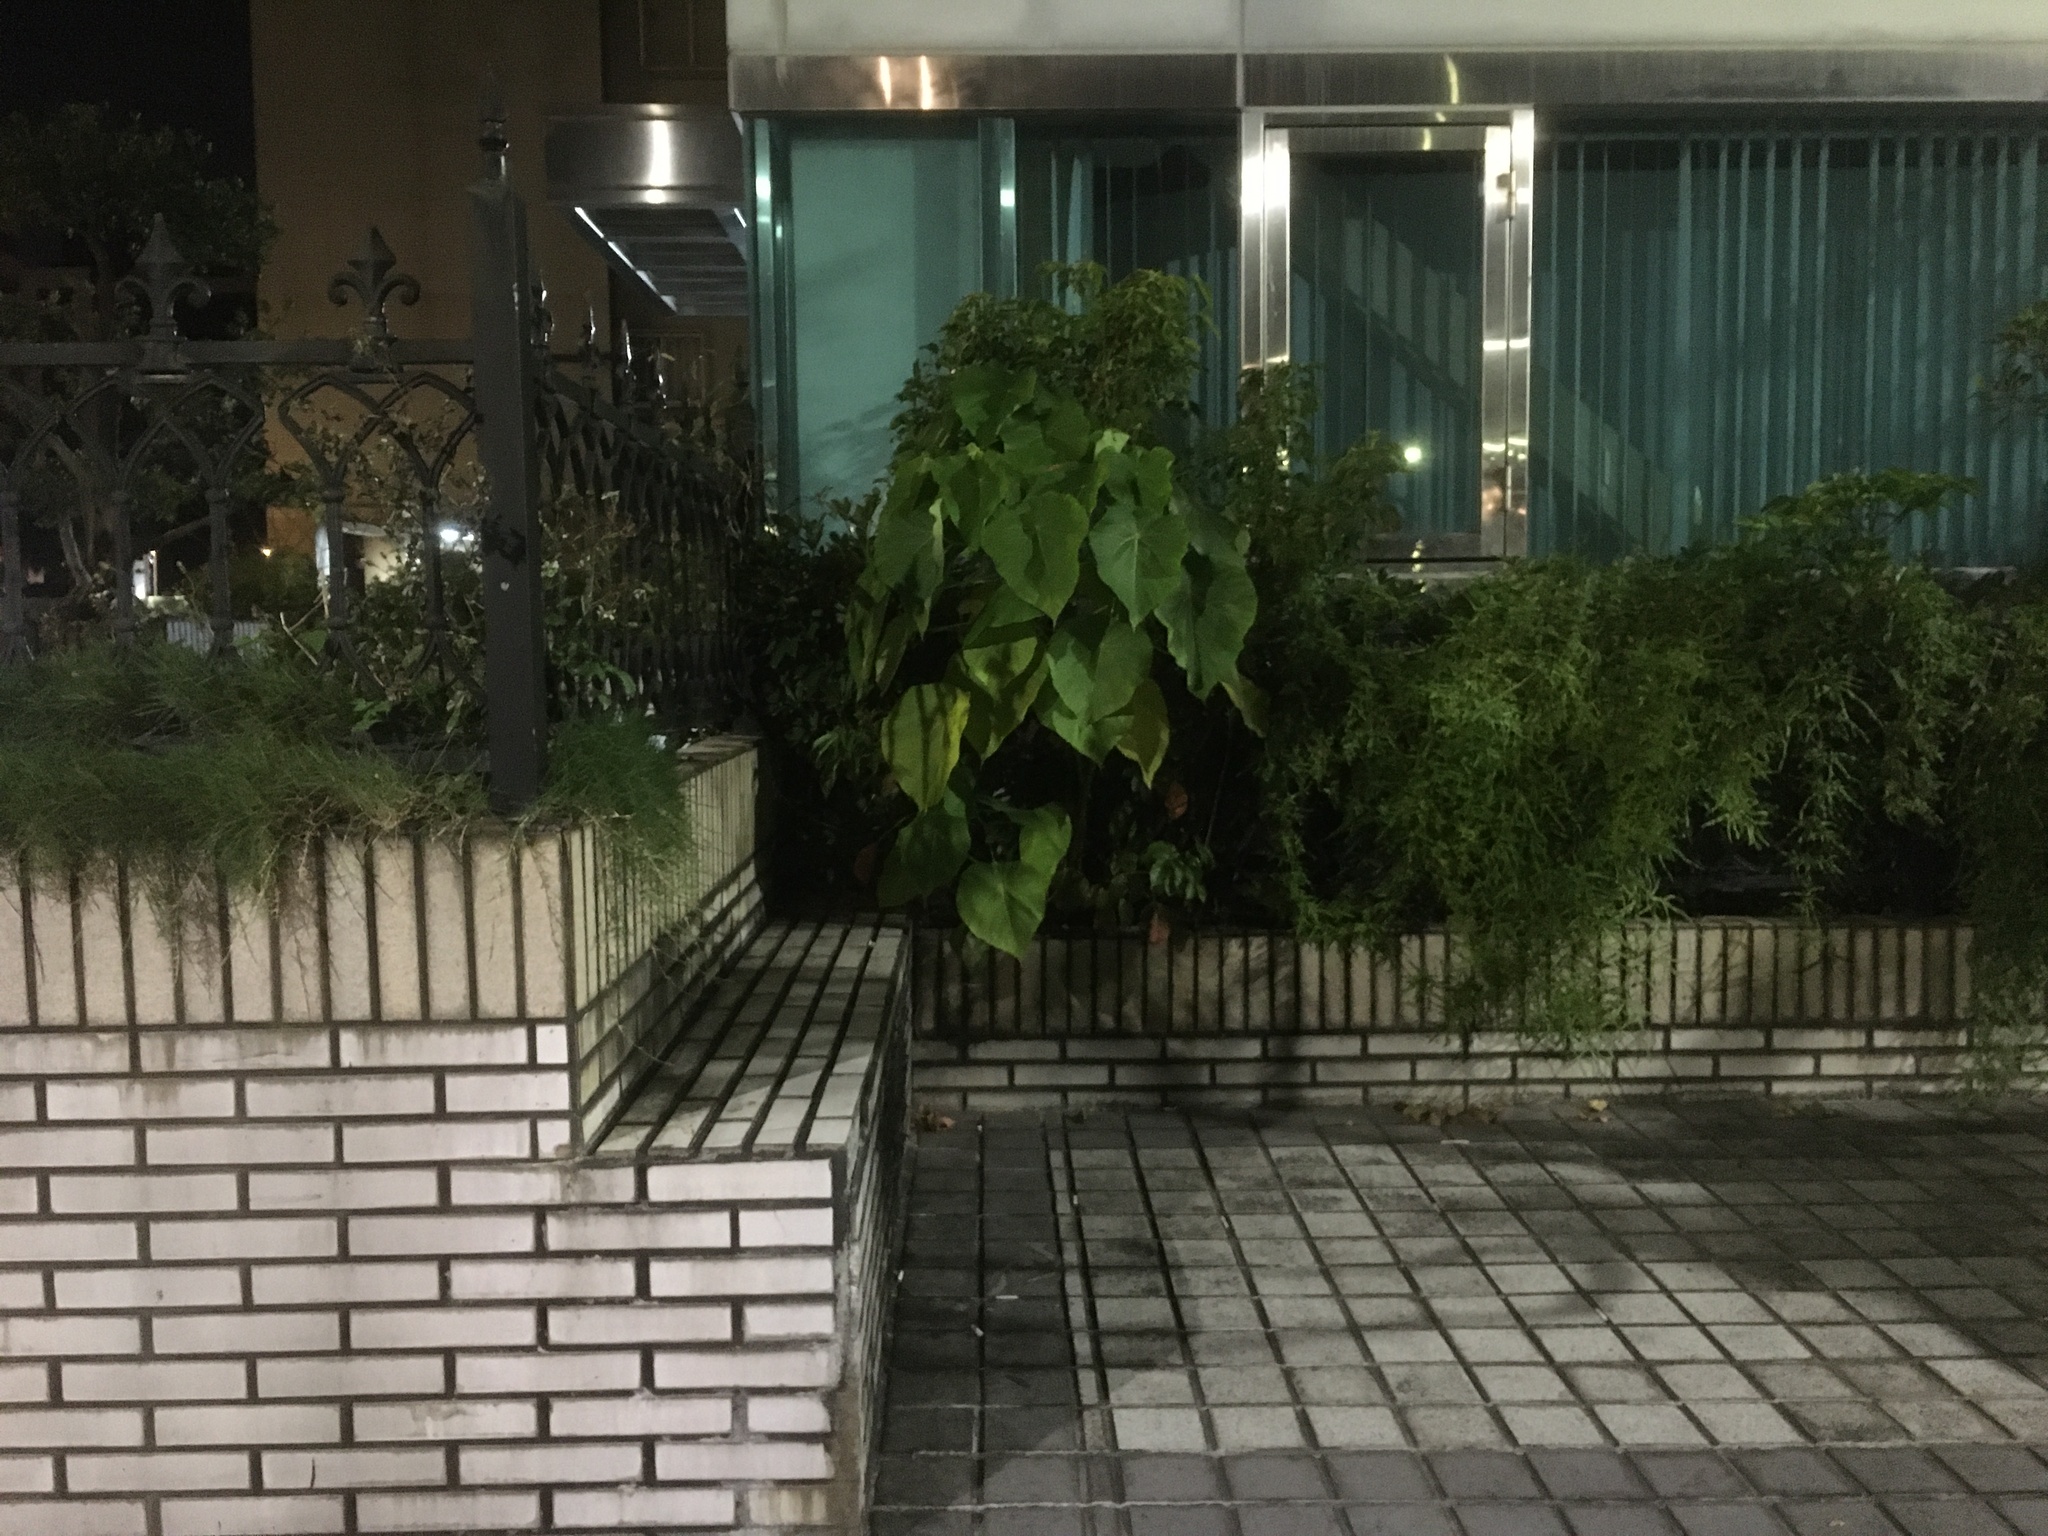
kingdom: Plantae
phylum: Tracheophyta
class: Magnoliopsida
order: Malpighiales
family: Euphorbiaceae
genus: Macaranga
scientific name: Macaranga tanarius
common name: Parasol leaf tree
